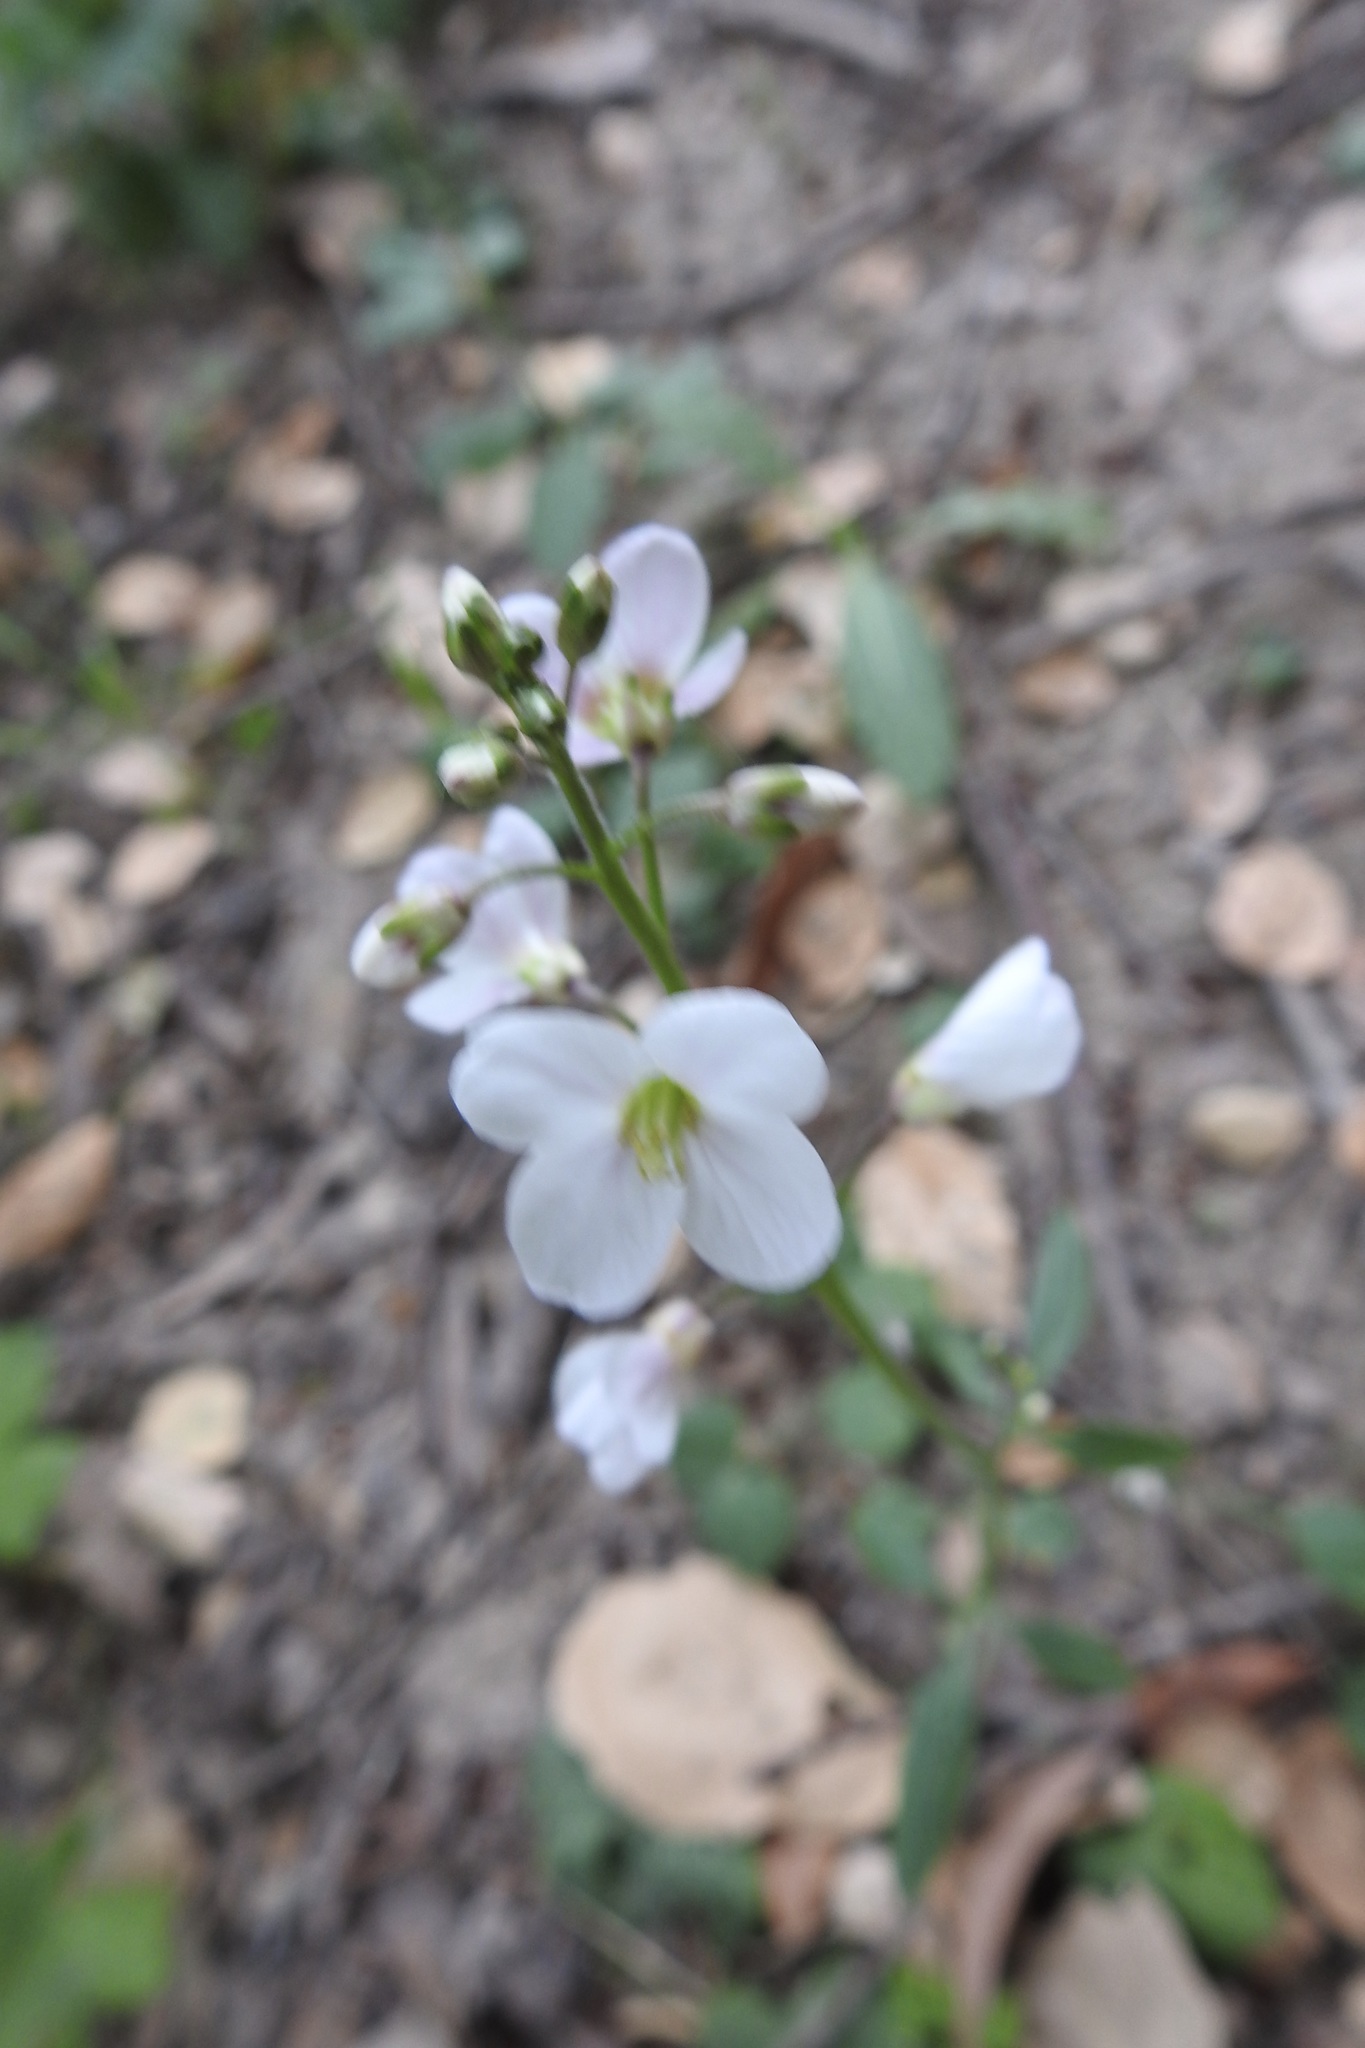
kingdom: Plantae
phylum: Tracheophyta
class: Magnoliopsida
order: Brassicales
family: Brassicaceae
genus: Cardamine
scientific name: Cardamine californica
